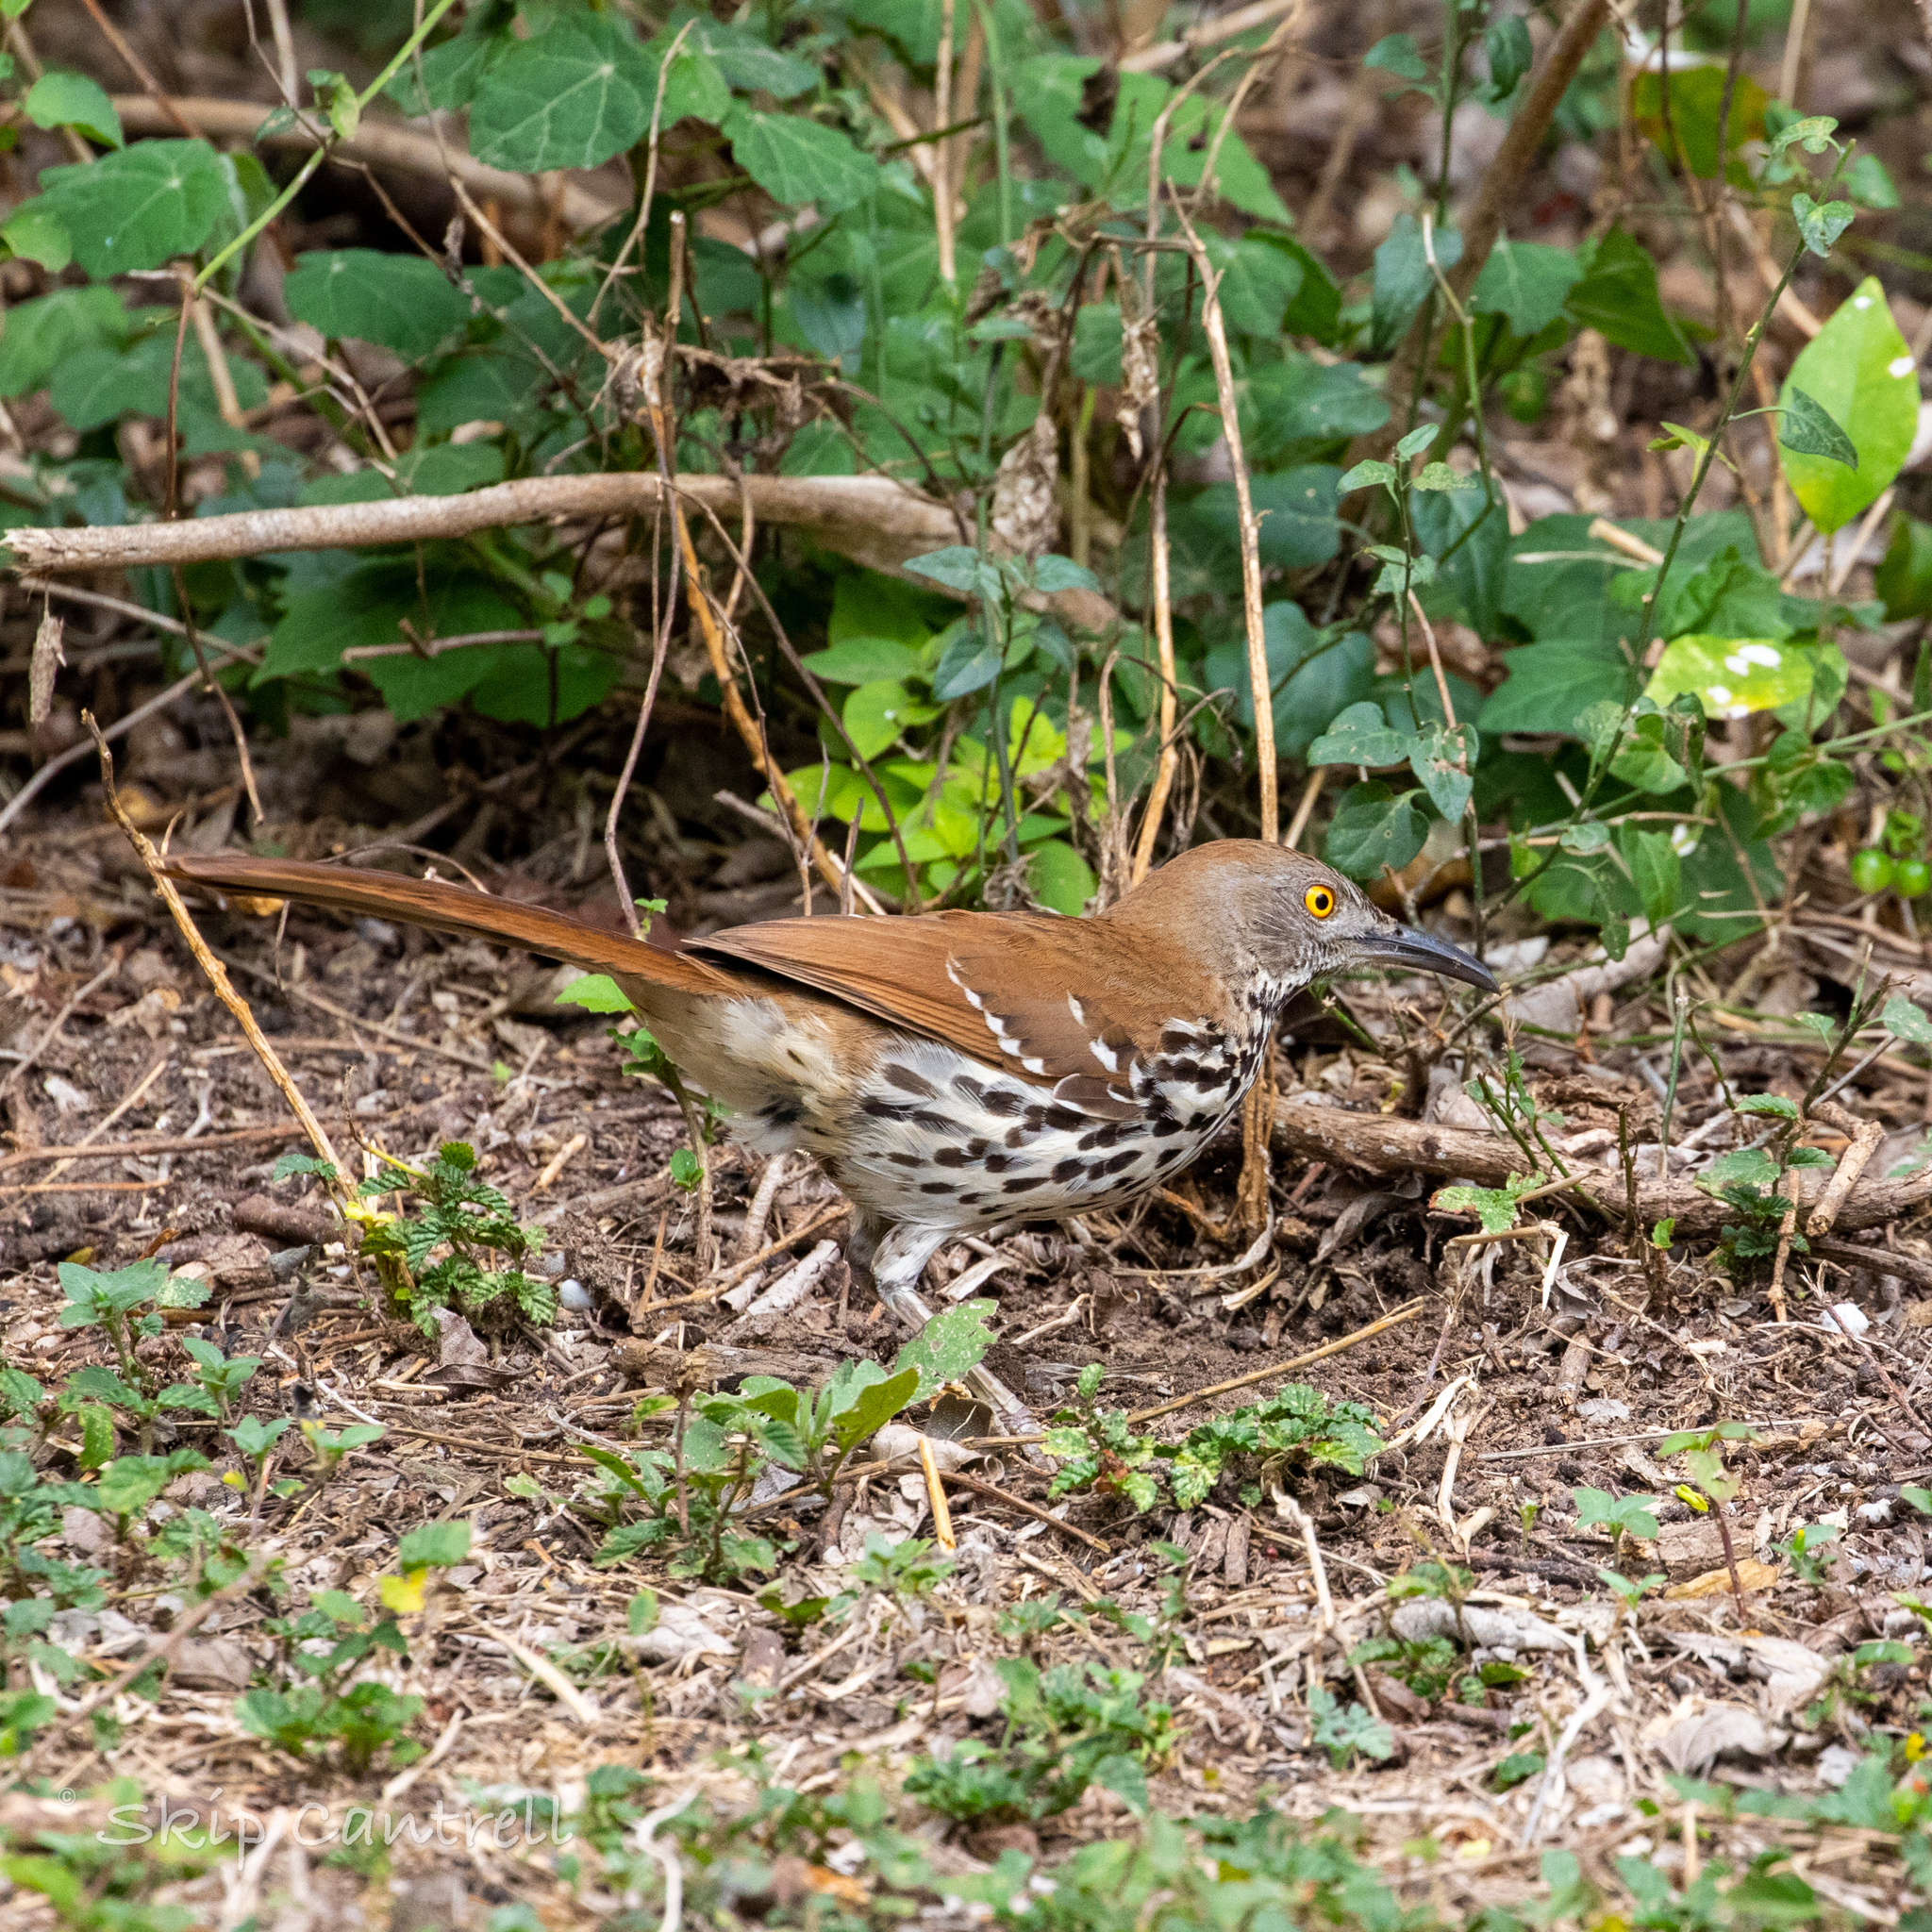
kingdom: Animalia
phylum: Chordata
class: Aves
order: Passeriformes
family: Mimidae
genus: Toxostoma
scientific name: Toxostoma longirostre
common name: Long-billed thrasher
